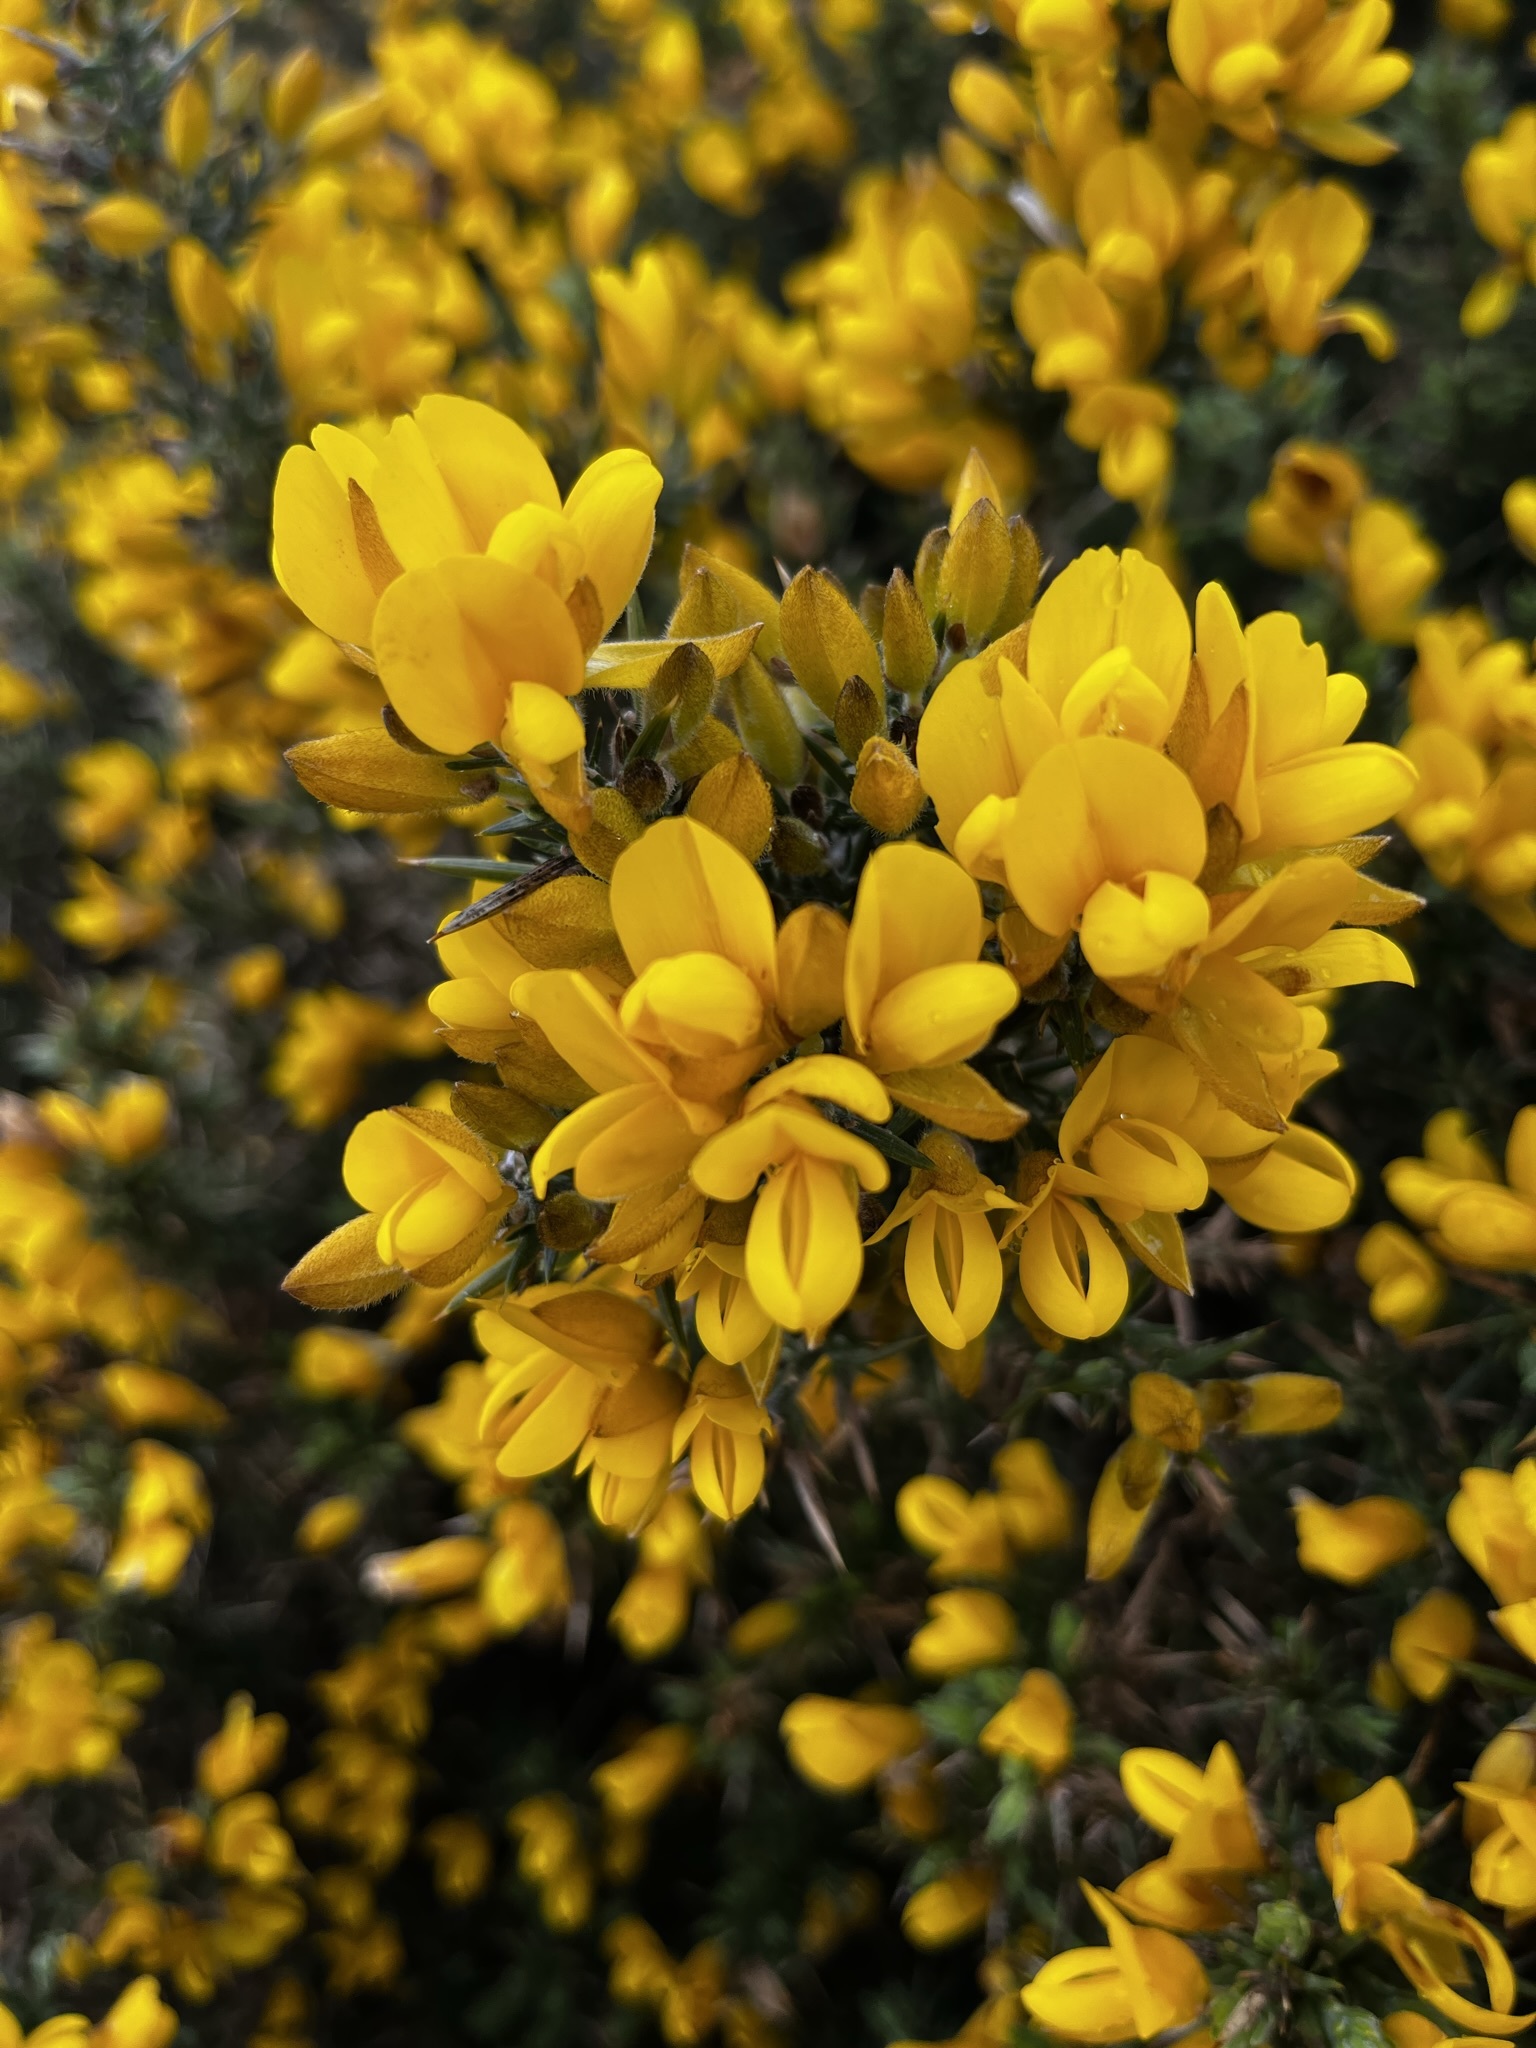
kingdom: Plantae
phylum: Tracheophyta
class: Magnoliopsida
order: Fabales
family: Fabaceae
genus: Ulex
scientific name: Ulex europaeus
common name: Common gorse
